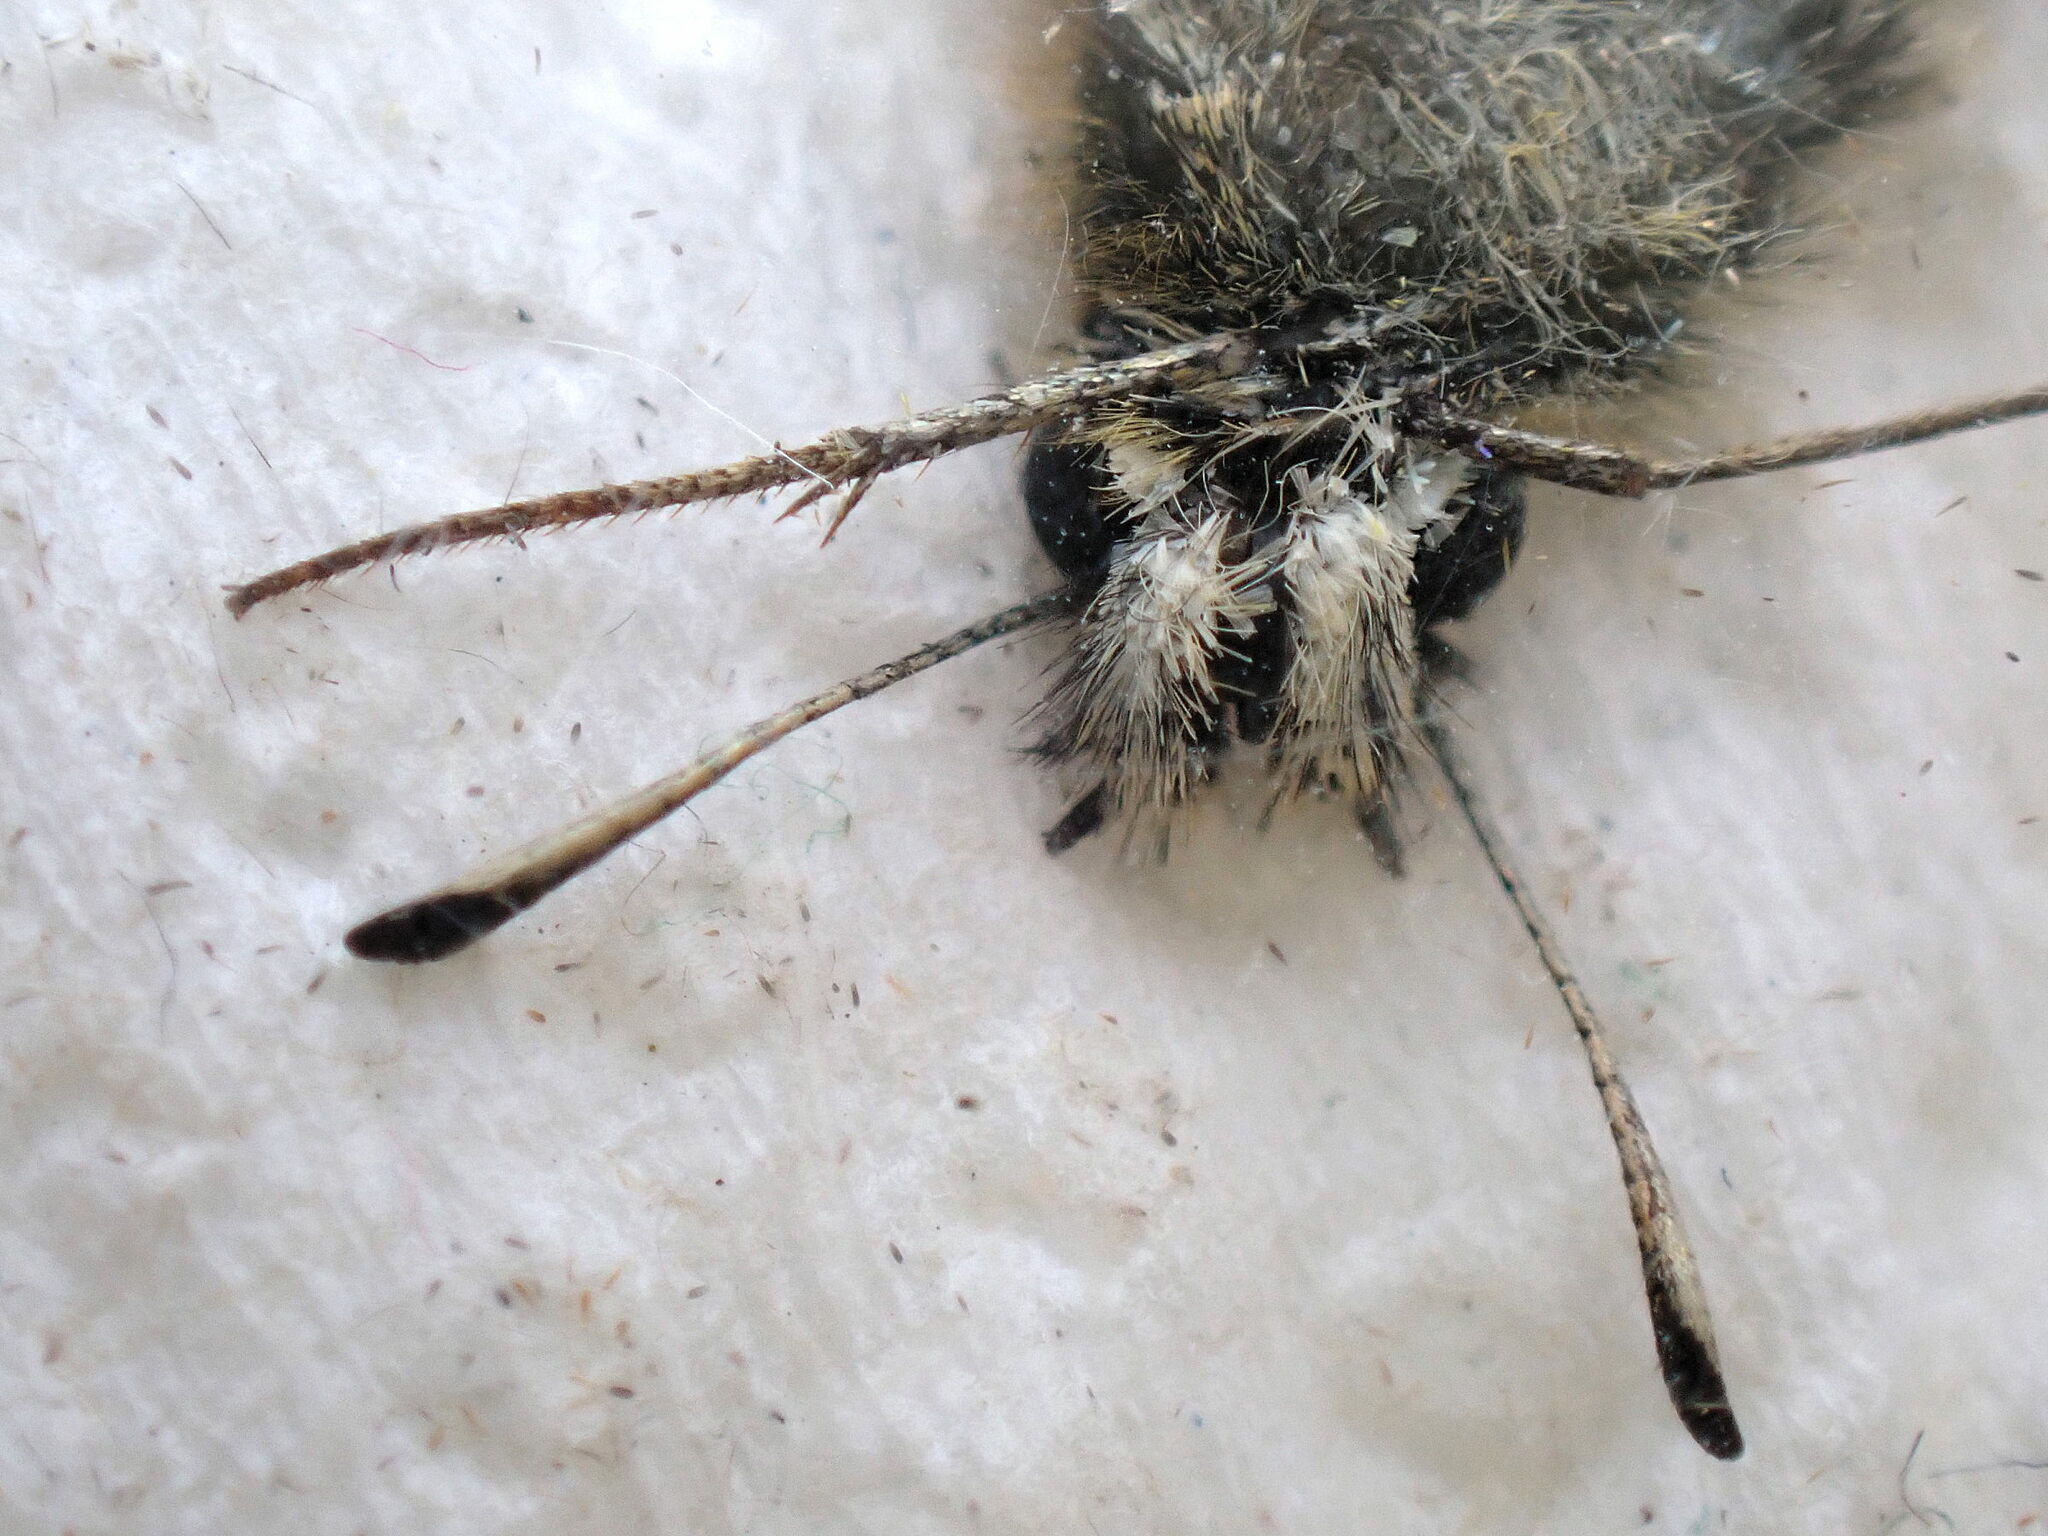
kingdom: Animalia
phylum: Arthropoda
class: Insecta
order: Lepidoptera
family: Hesperiidae
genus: Thymelicus
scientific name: Thymelicus lineola
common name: Essex skipper
